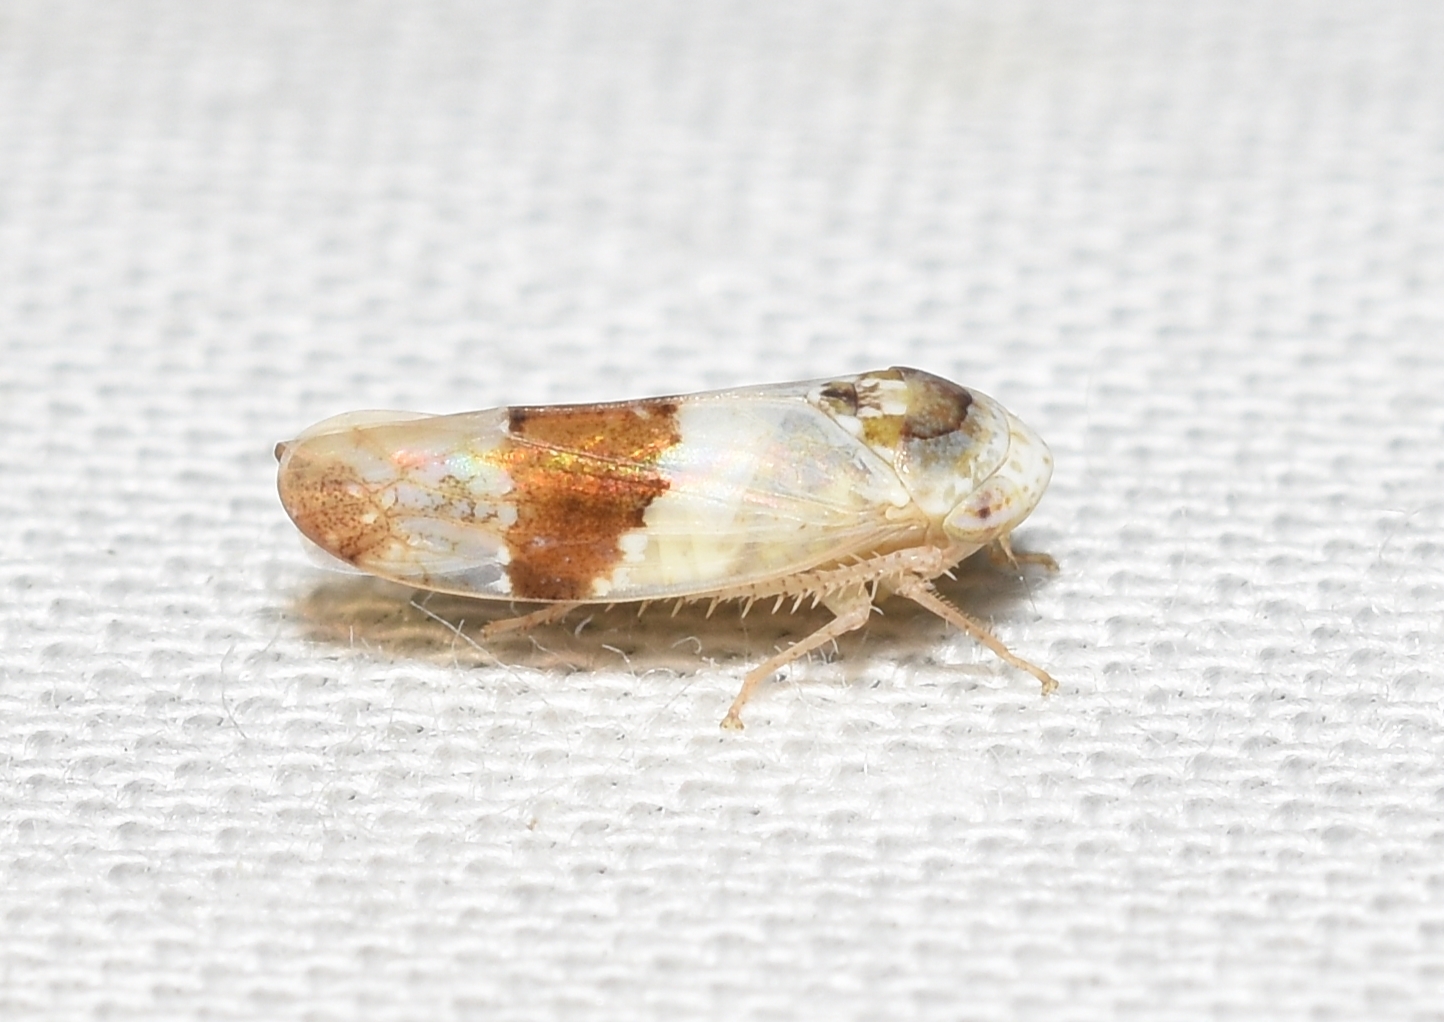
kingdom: Animalia
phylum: Arthropoda
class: Insecta
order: Hemiptera
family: Cicadellidae
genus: Norvellina
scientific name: Norvellina seminuda
